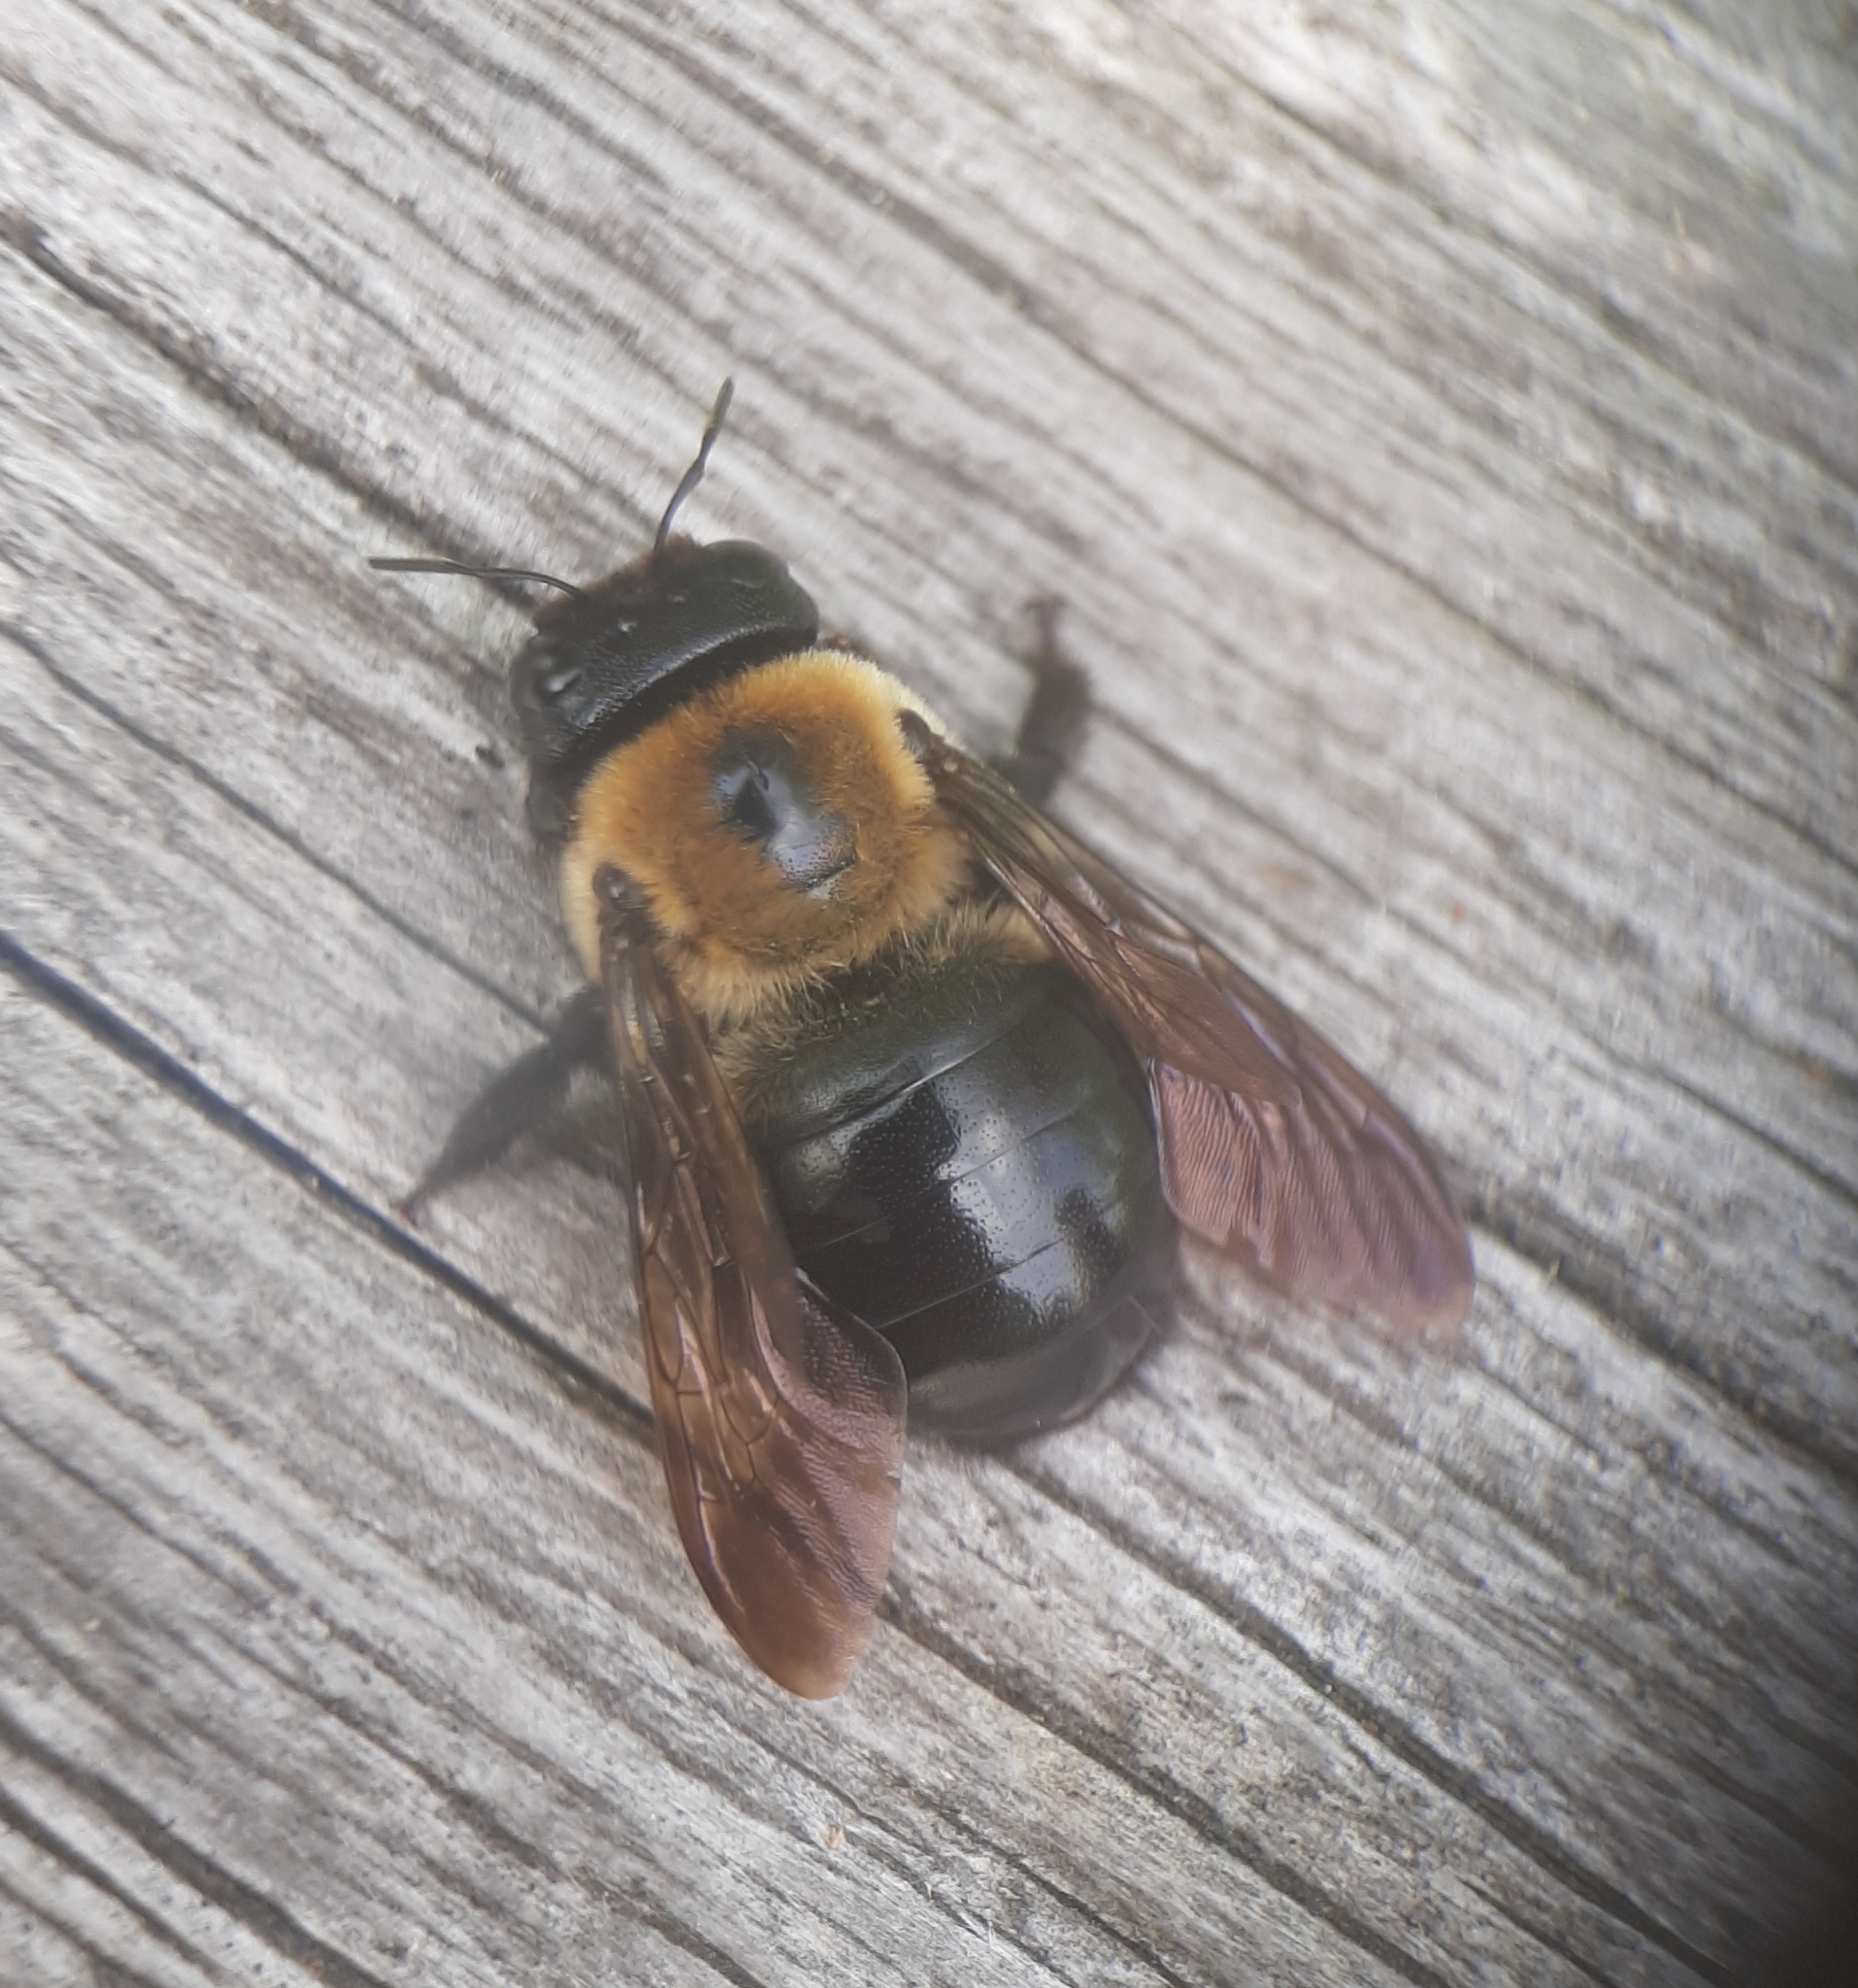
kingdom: Animalia
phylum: Arthropoda
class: Insecta
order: Hymenoptera
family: Apidae
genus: Xylocopa
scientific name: Xylocopa virginica
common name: Carpenter bee
